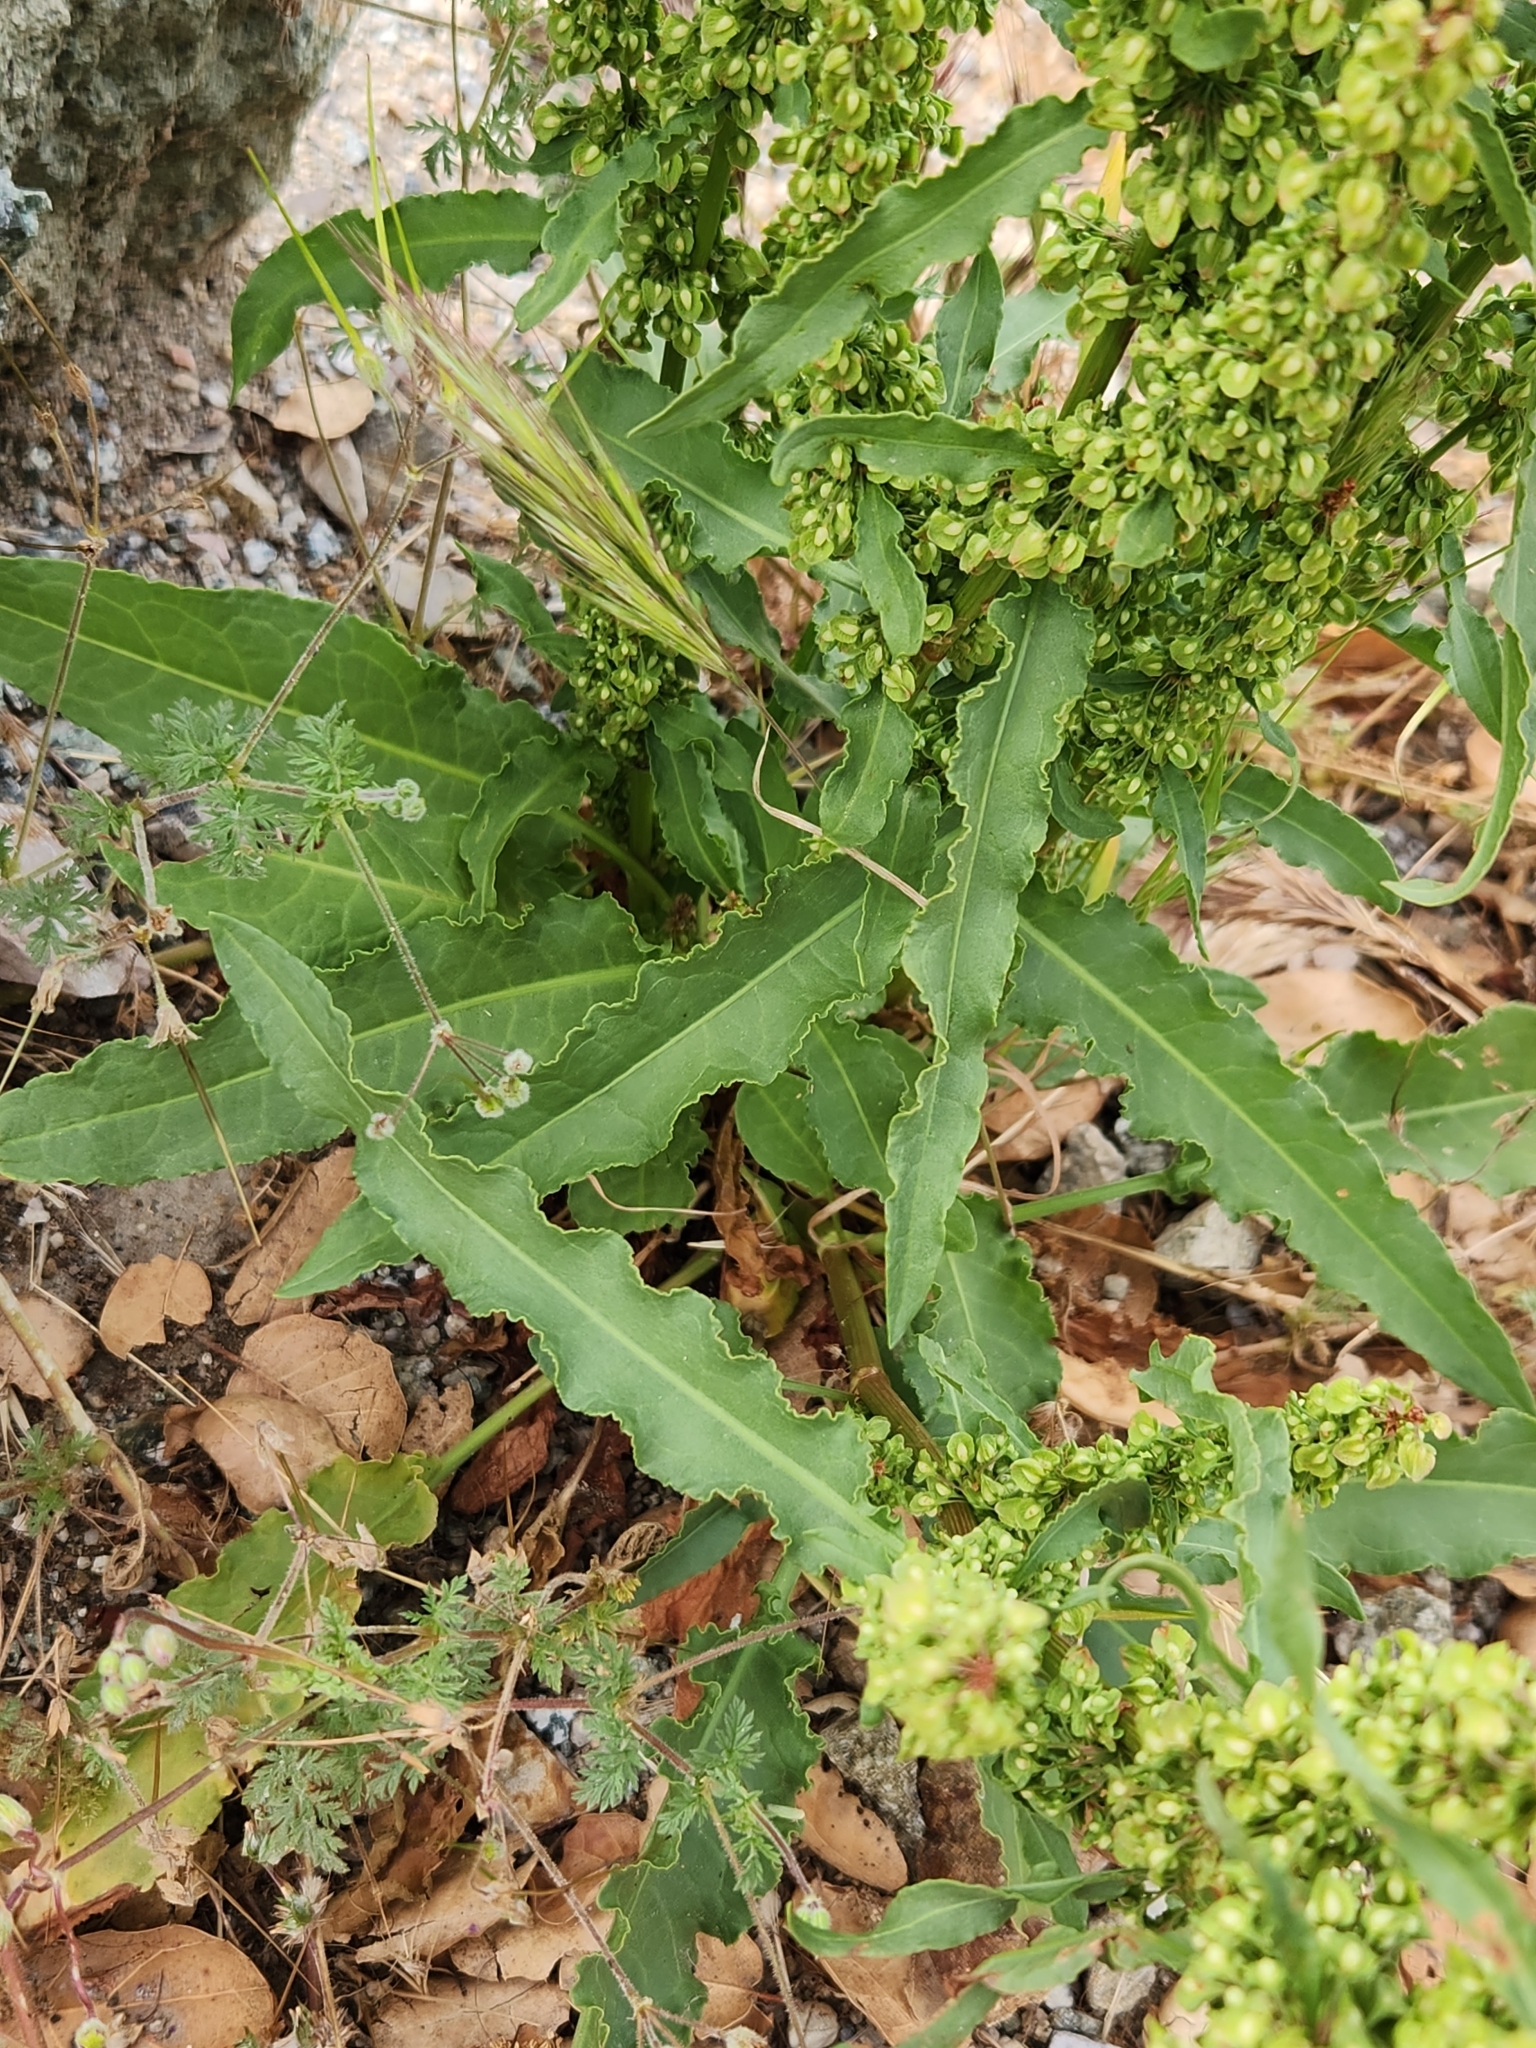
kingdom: Plantae
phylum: Tracheophyta
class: Magnoliopsida
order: Caryophyllales
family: Polygonaceae
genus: Rumex
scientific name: Rumex crispus
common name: Curled dock
